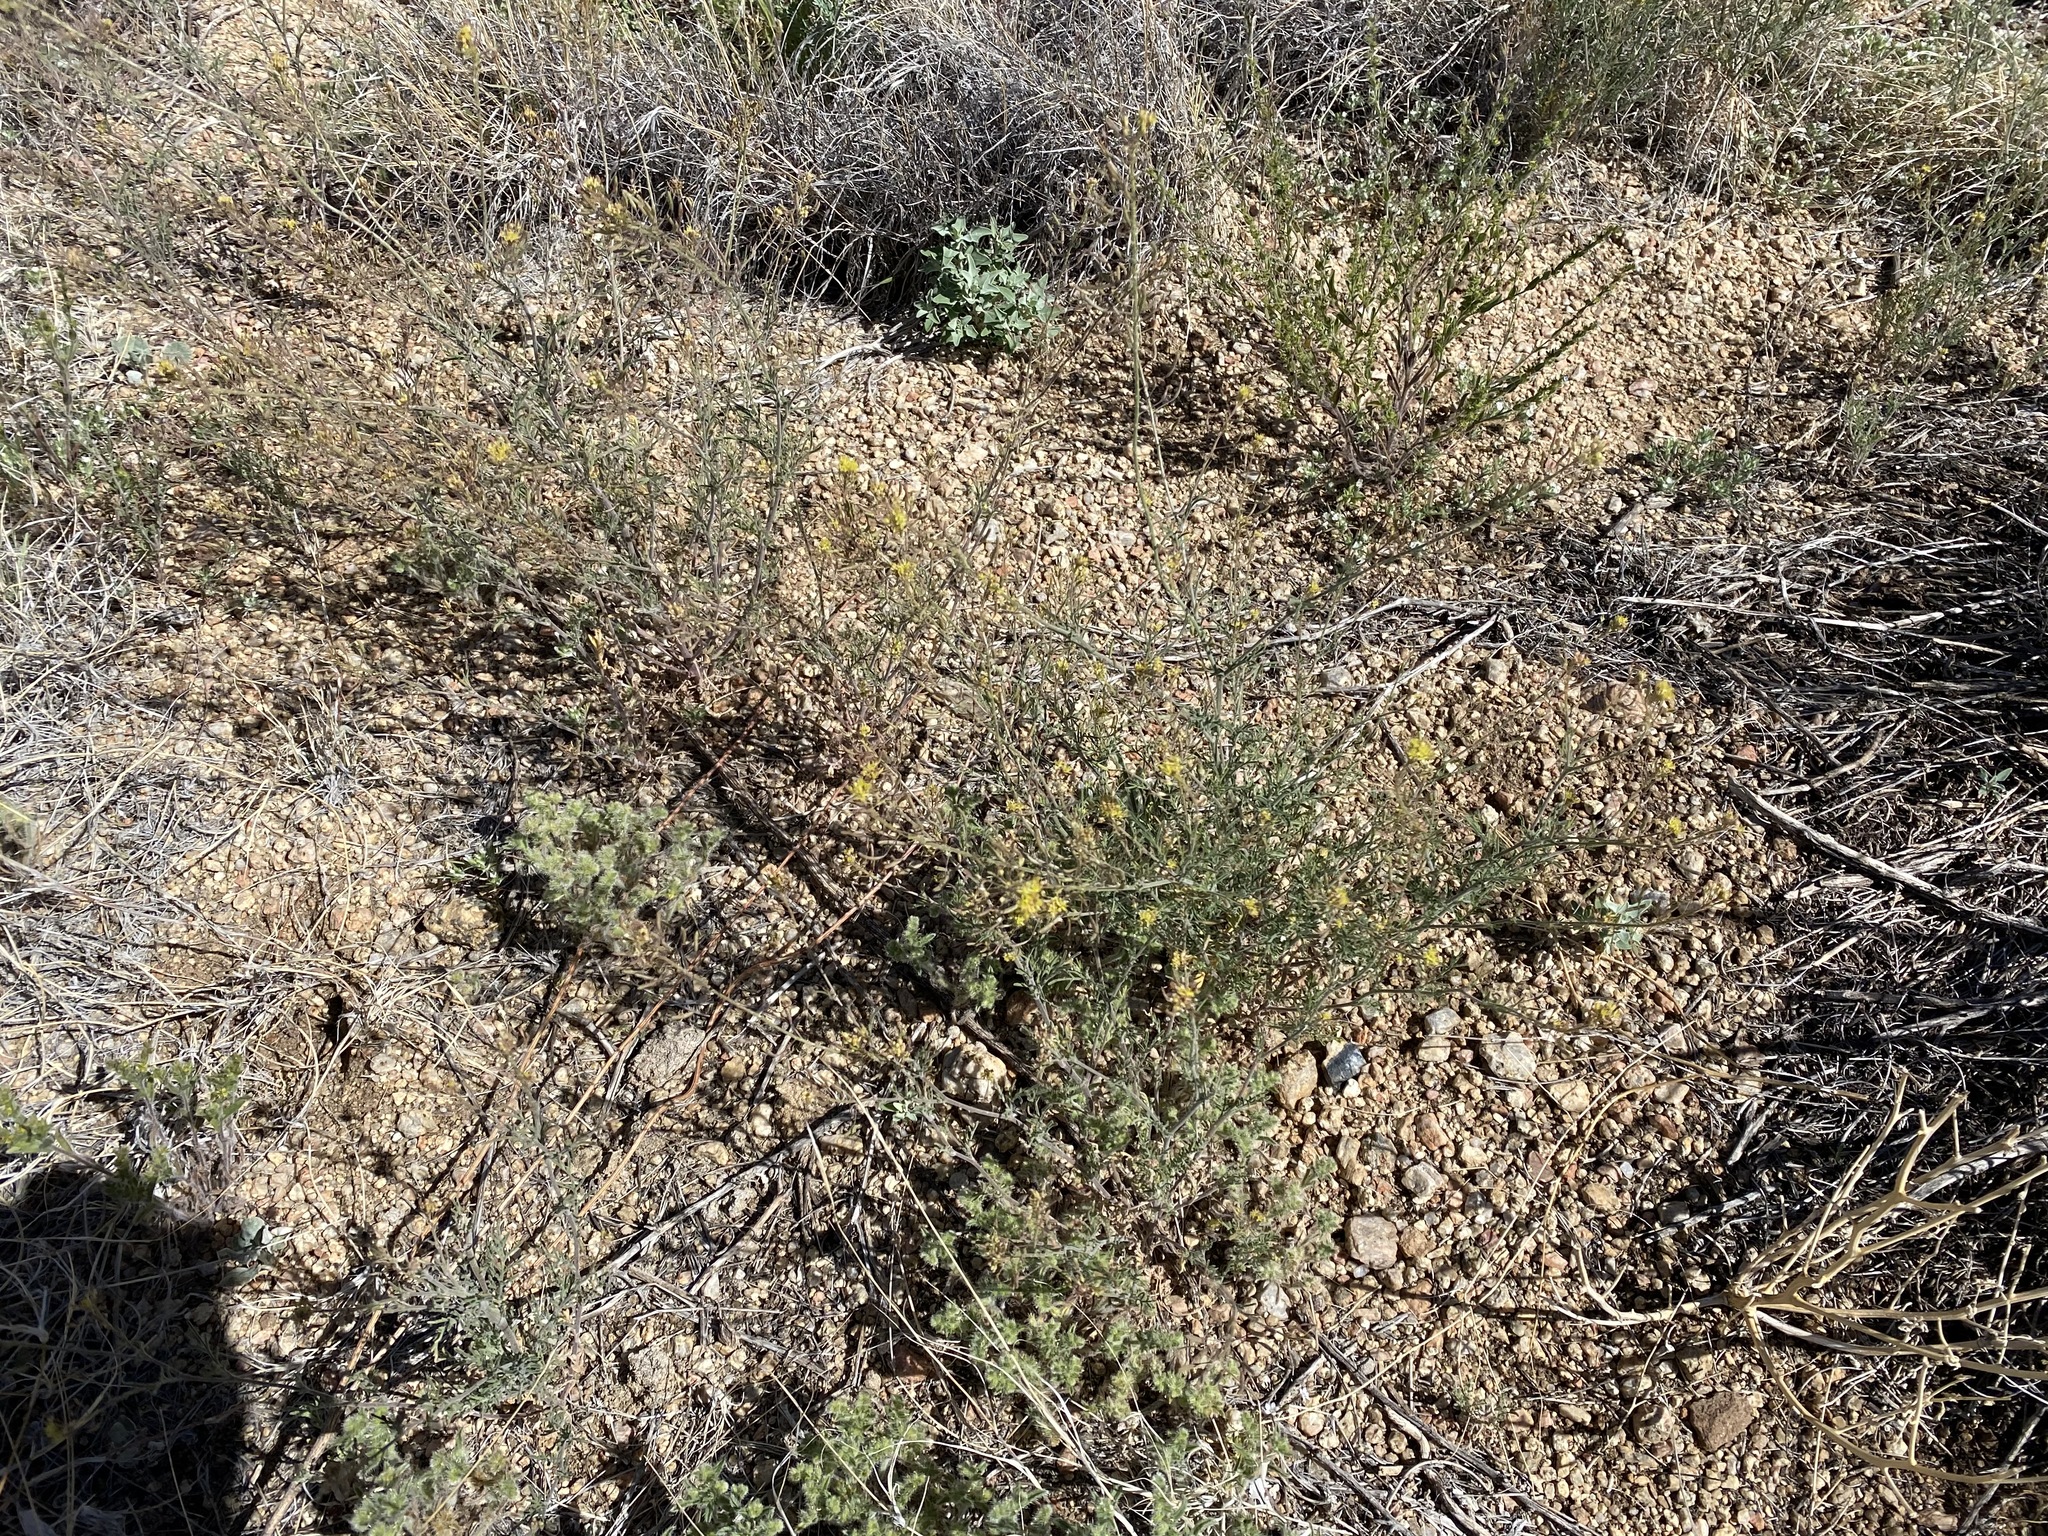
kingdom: Plantae
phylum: Tracheophyta
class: Magnoliopsida
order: Brassicales
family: Brassicaceae
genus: Descurainia
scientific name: Descurainia pinnata
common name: Western tansy mustard
